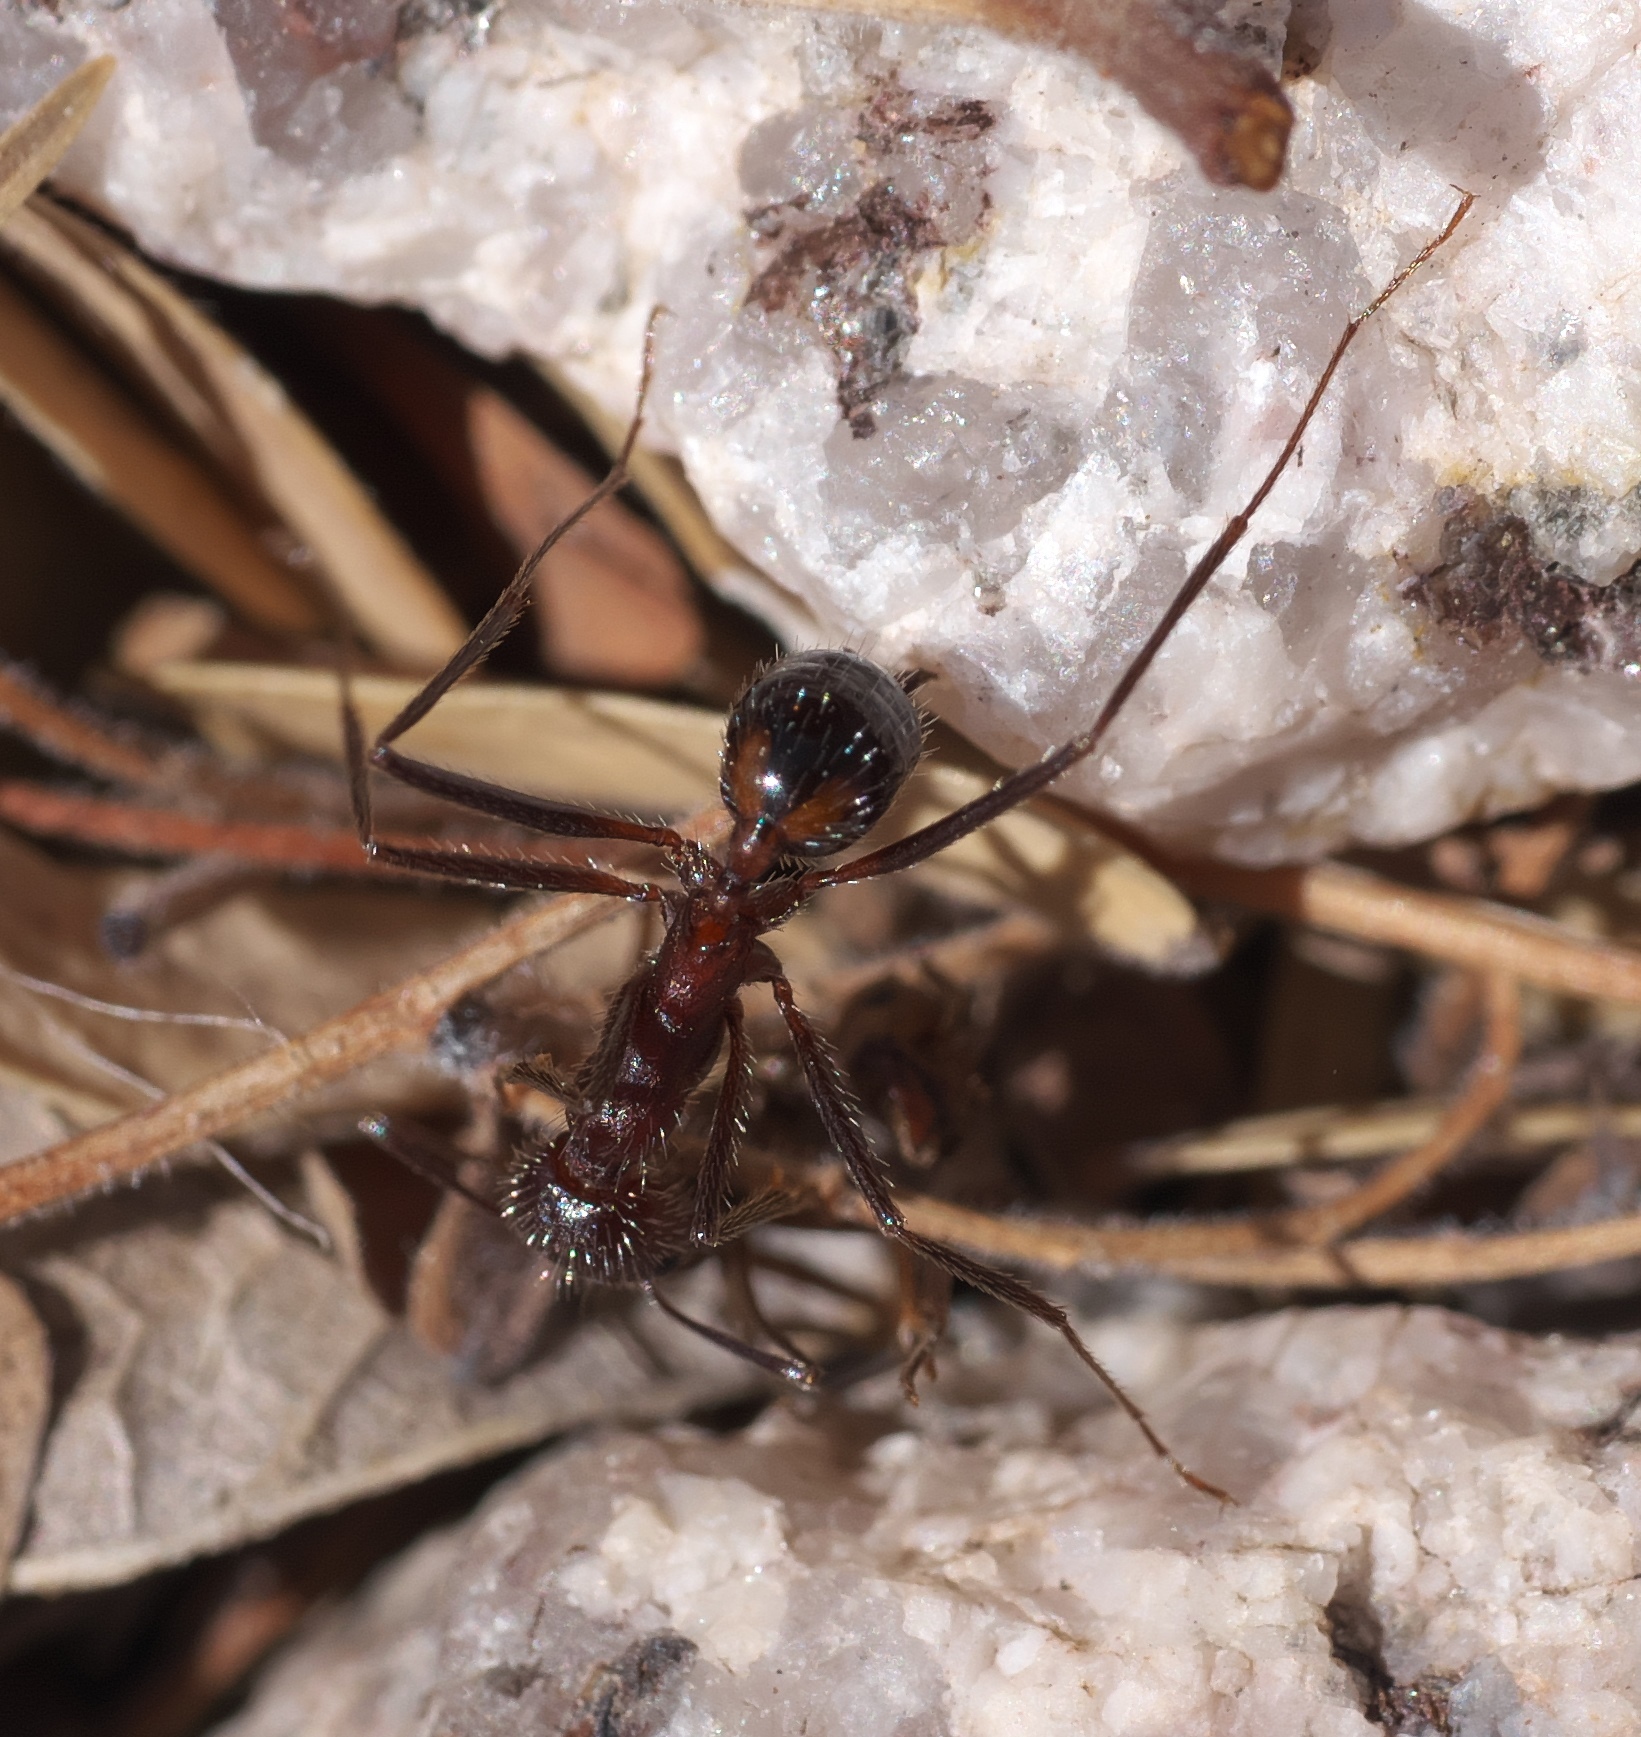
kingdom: Animalia
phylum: Arthropoda
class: Insecta
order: Hymenoptera
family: Formicidae
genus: Novomessor
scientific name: Novomessor albisetosa
